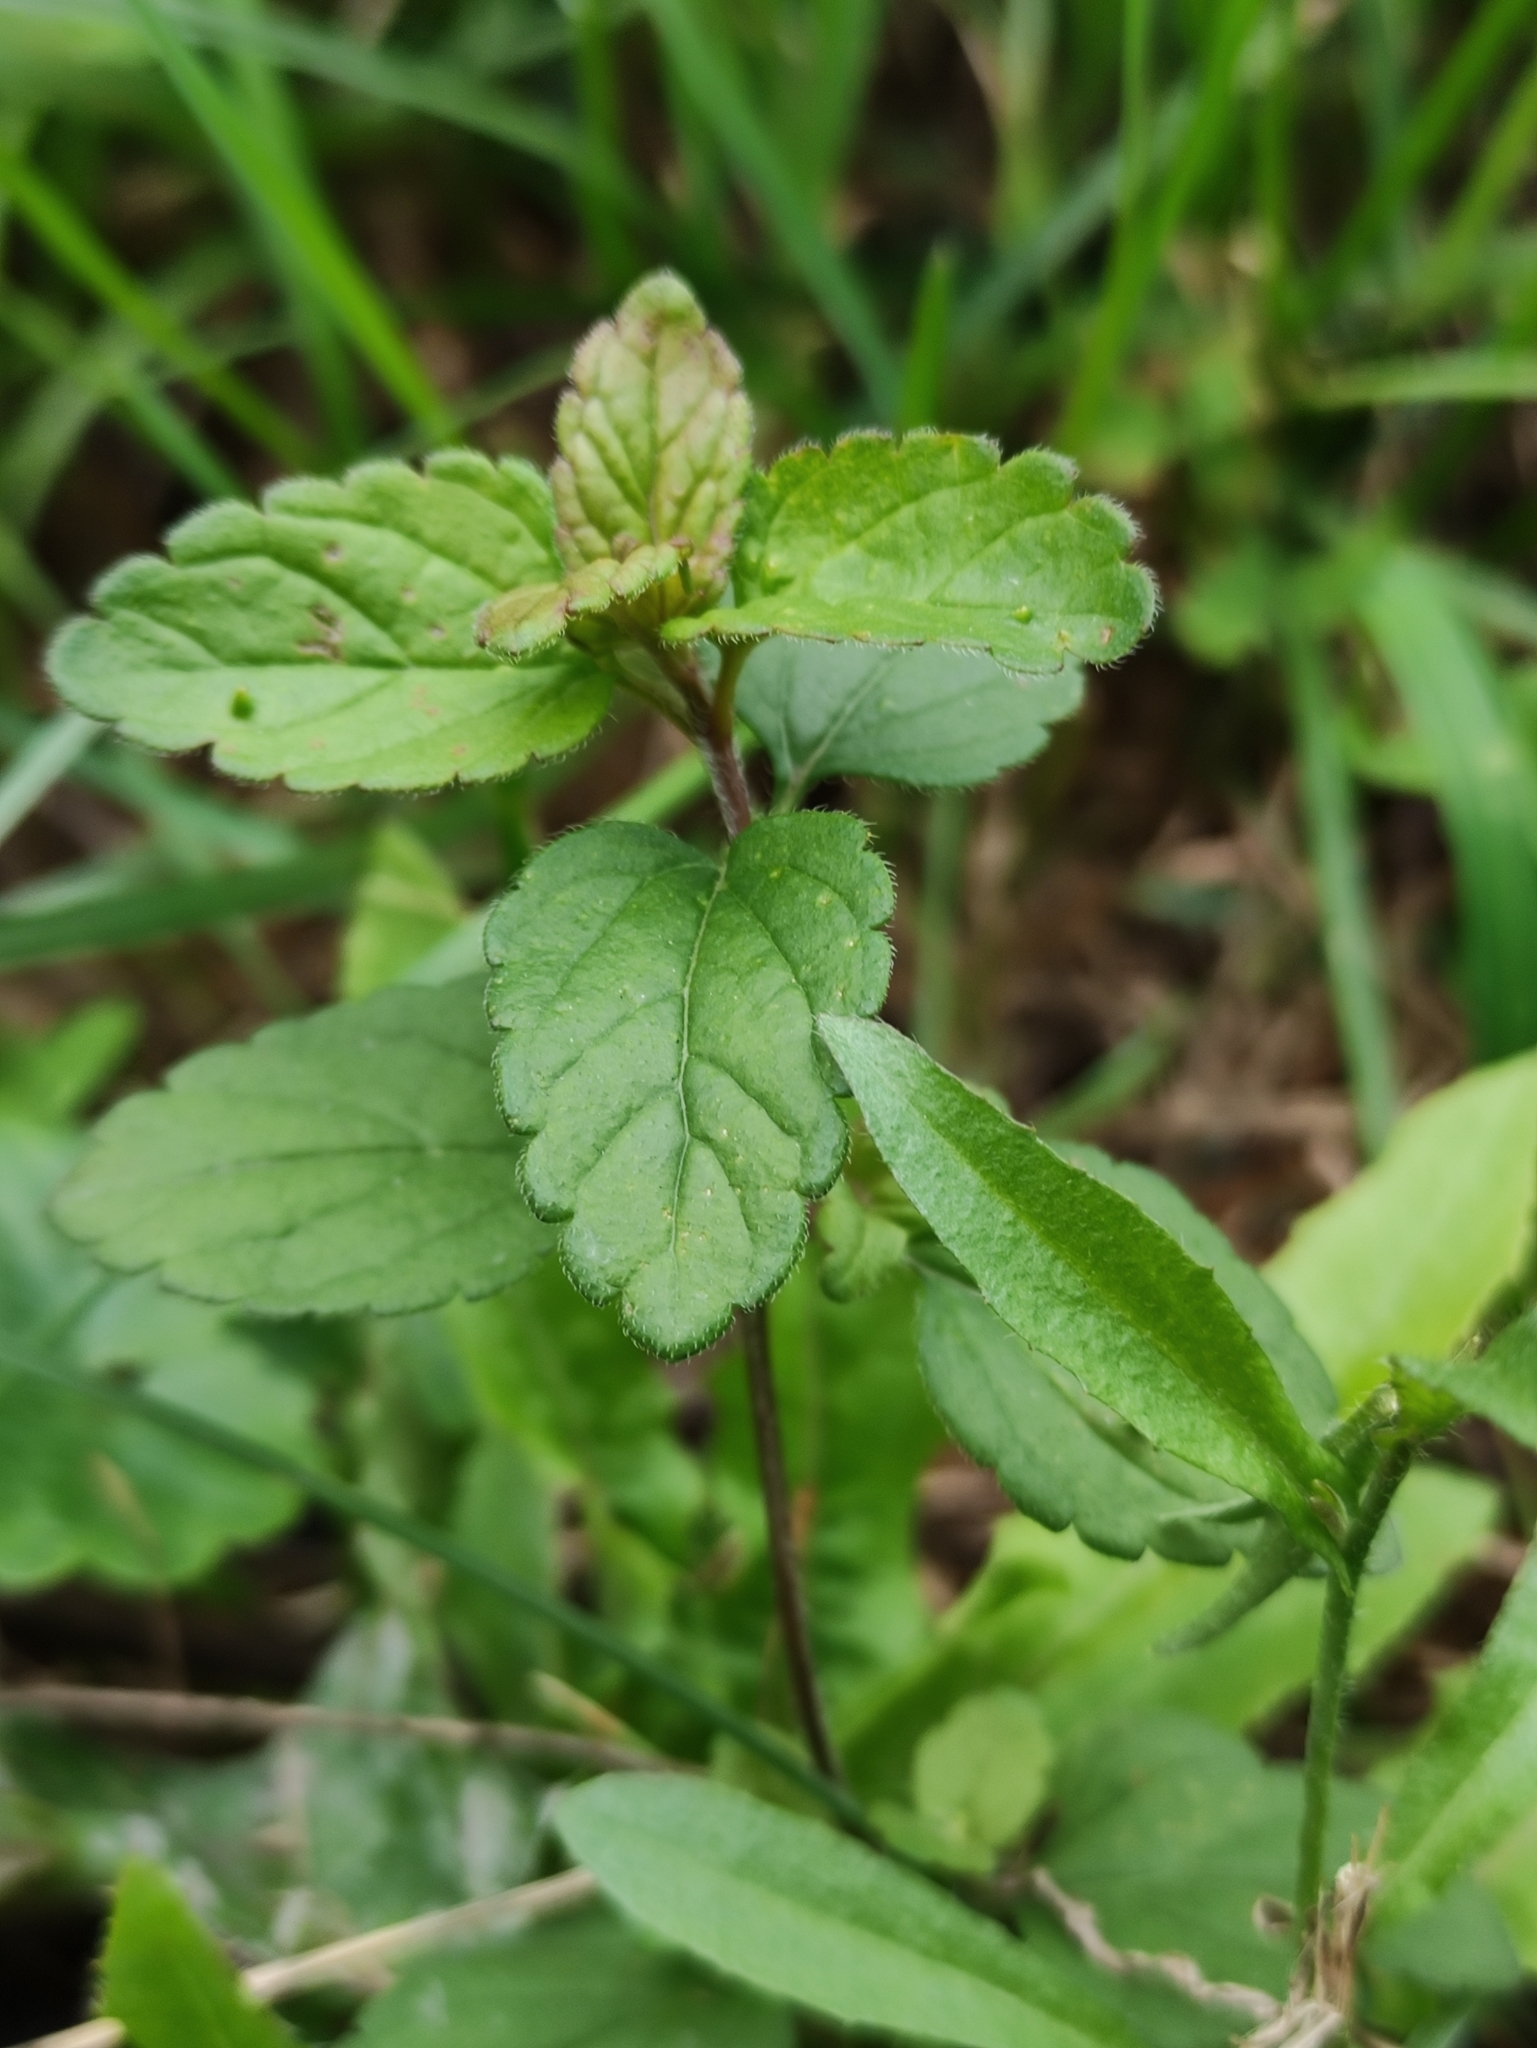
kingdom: Plantae
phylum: Tracheophyta
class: Magnoliopsida
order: Lamiales
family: Plantaginaceae
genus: Veronica
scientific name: Veronica chamaedrys
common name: Germander speedwell
